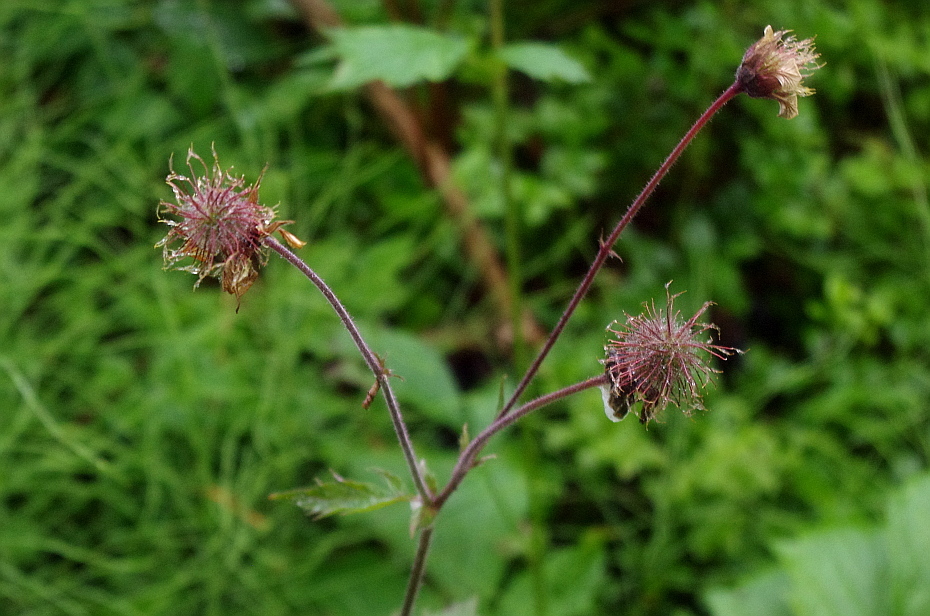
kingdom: Plantae
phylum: Tracheophyta
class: Magnoliopsida
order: Rosales
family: Rosaceae
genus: Geum
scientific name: Geum rivale
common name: Water avens
